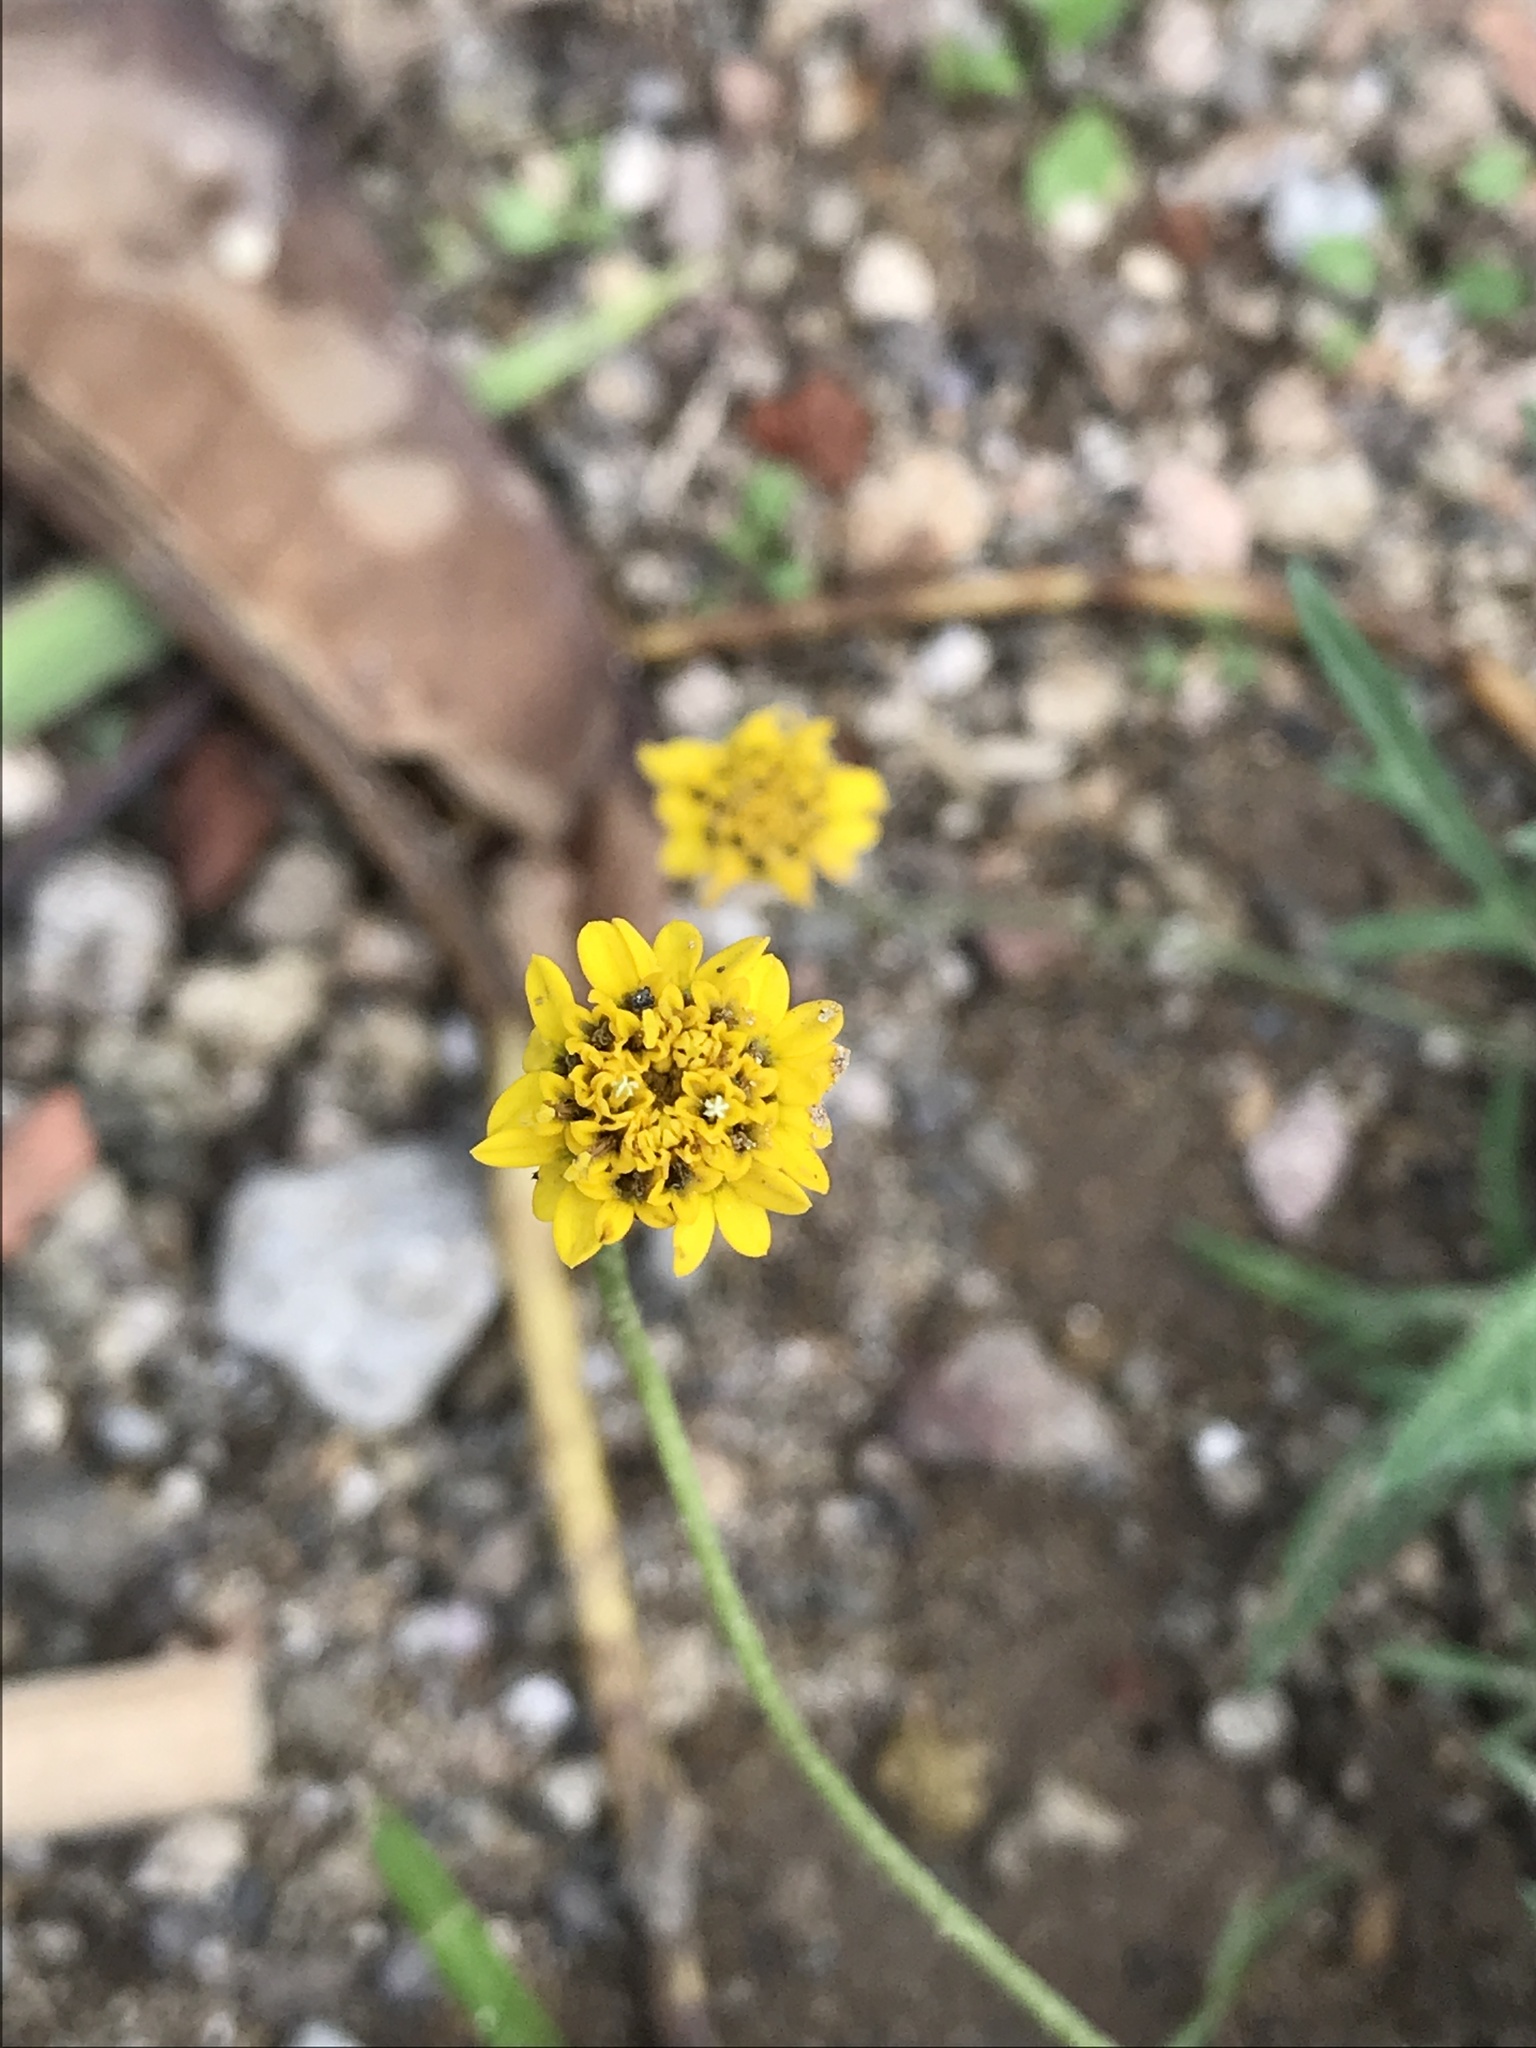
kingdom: Plantae
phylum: Tracheophyta
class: Magnoliopsida
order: Asterales
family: Asteraceae
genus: Tridax
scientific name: Tridax coronopifolia
